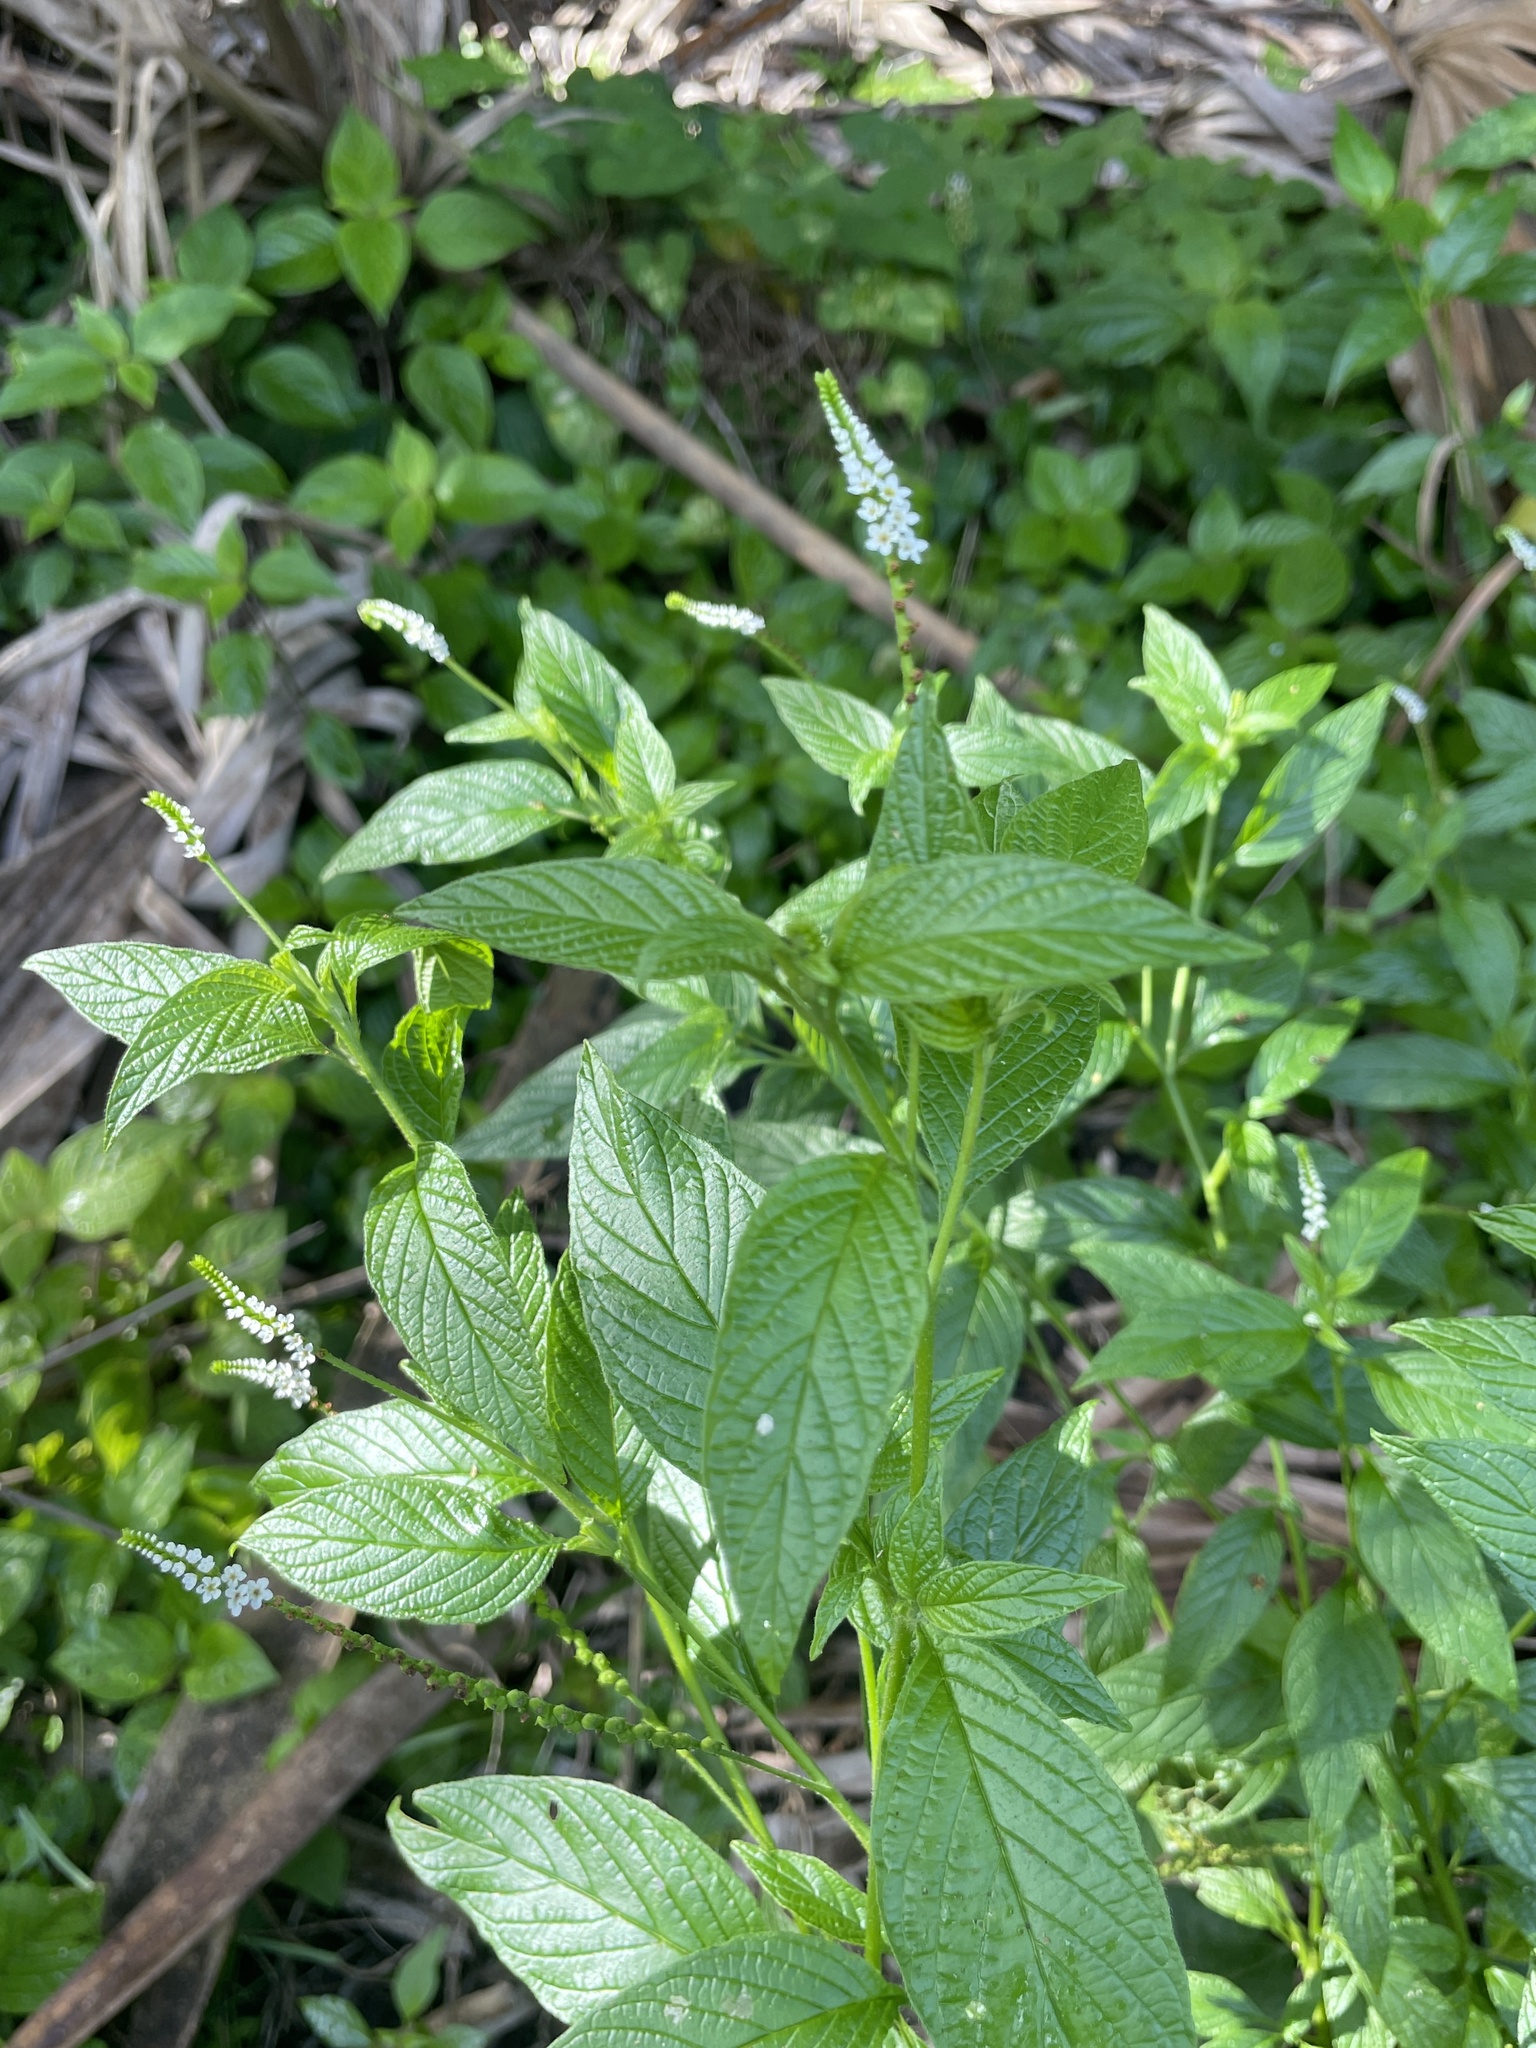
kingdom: Plantae
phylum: Tracheophyta
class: Magnoliopsida
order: Boraginales
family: Heliotropiaceae
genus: Heliotropium
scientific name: Heliotropium angiospermum
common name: Eye bright
